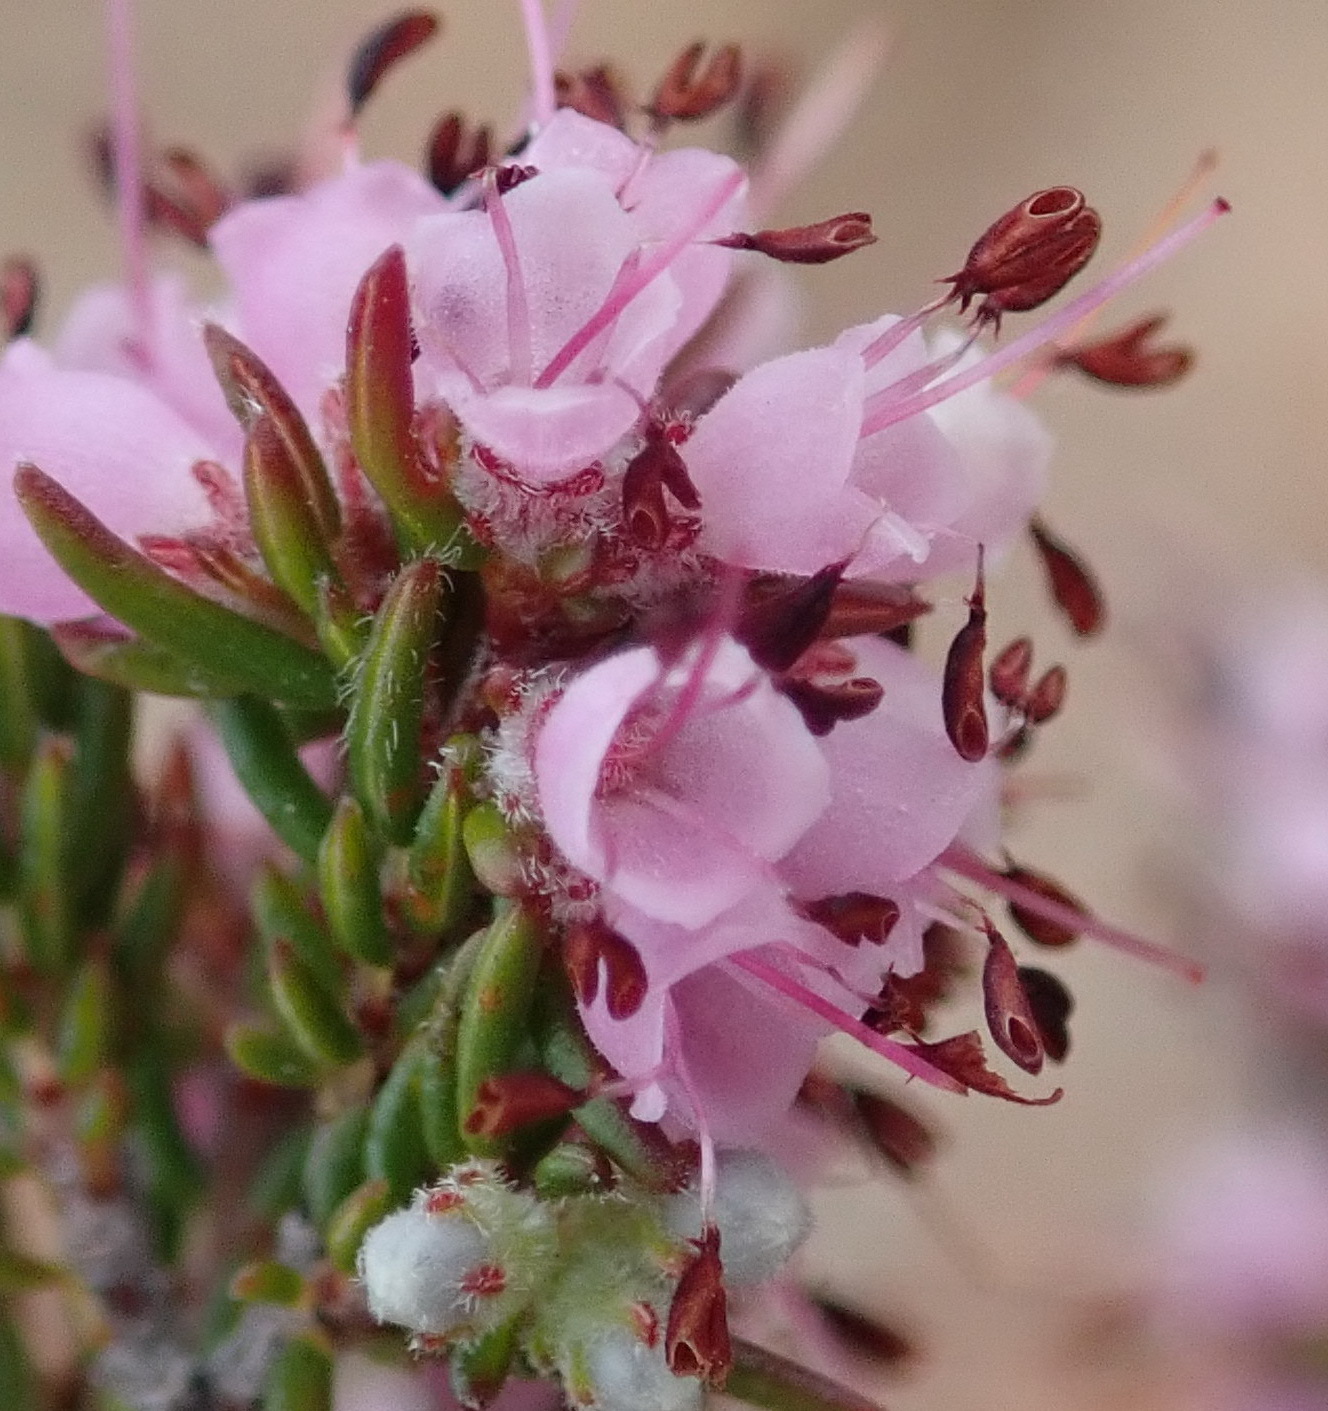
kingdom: Plantae
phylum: Tracheophyta
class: Magnoliopsida
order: Ericales
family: Ericaceae
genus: Erica
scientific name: Erica anguliger
